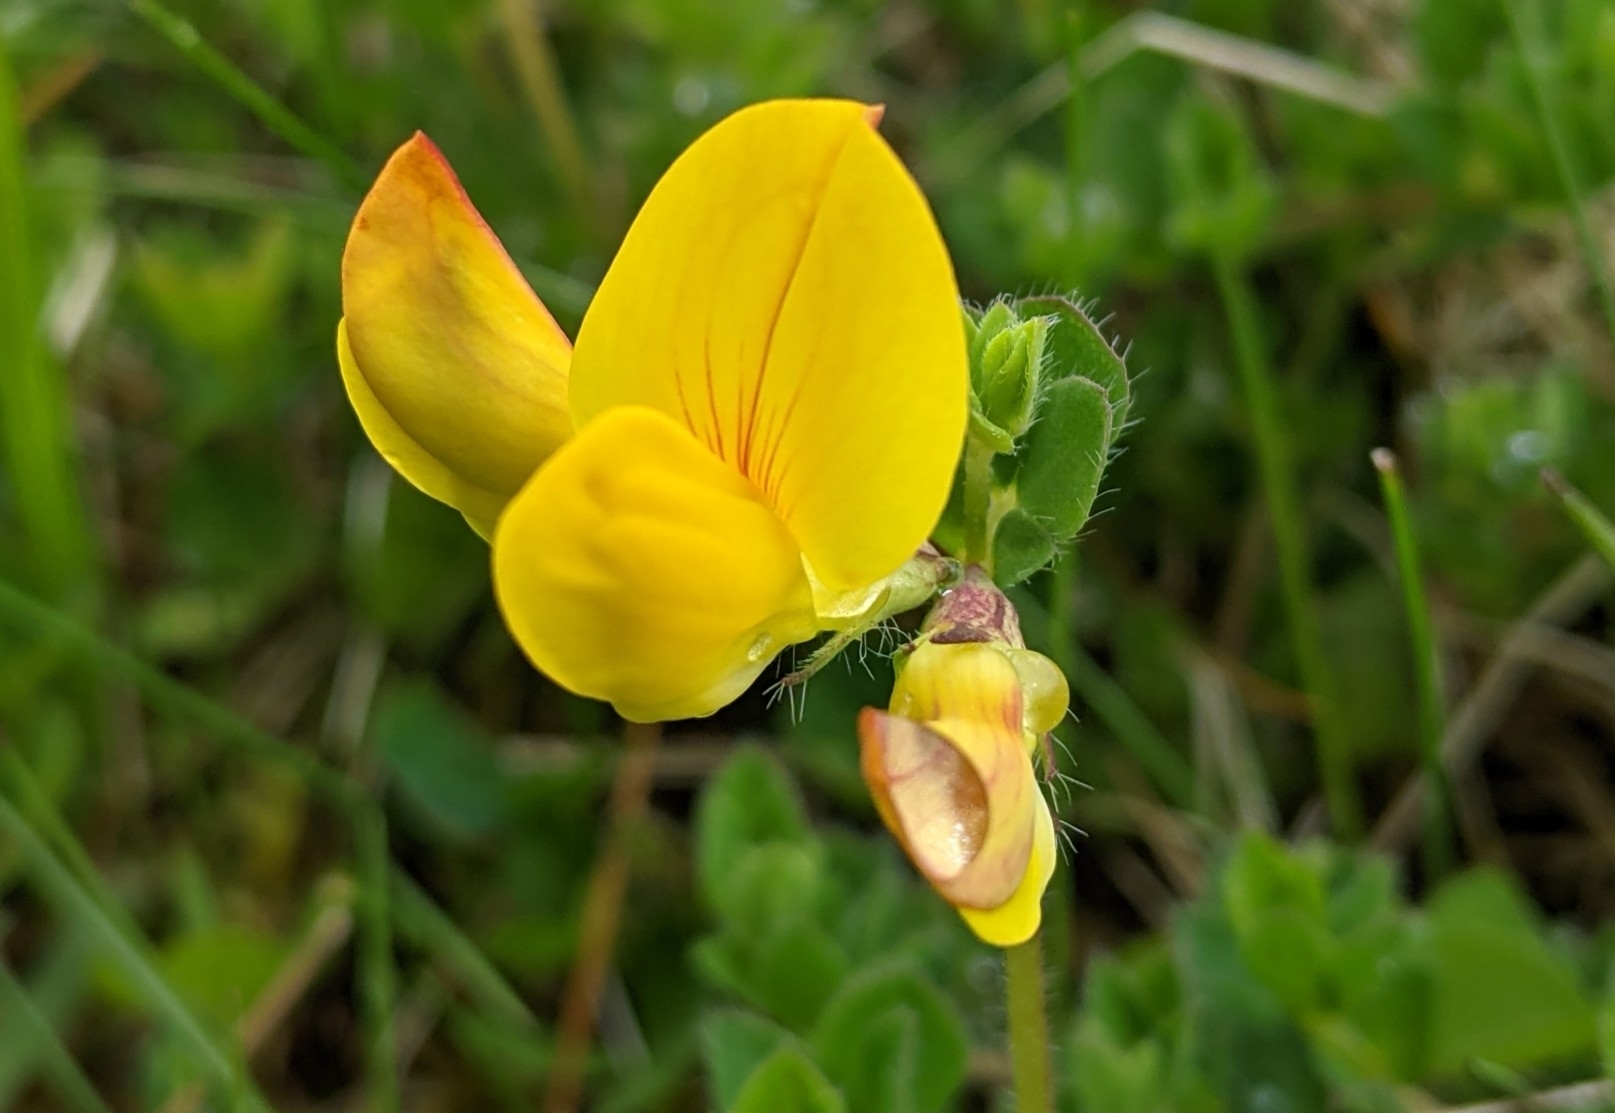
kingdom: Plantae
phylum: Tracheophyta
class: Magnoliopsida
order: Fabales
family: Fabaceae
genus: Lotus
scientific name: Lotus corniculatus
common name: Common bird's-foot-trefoil
